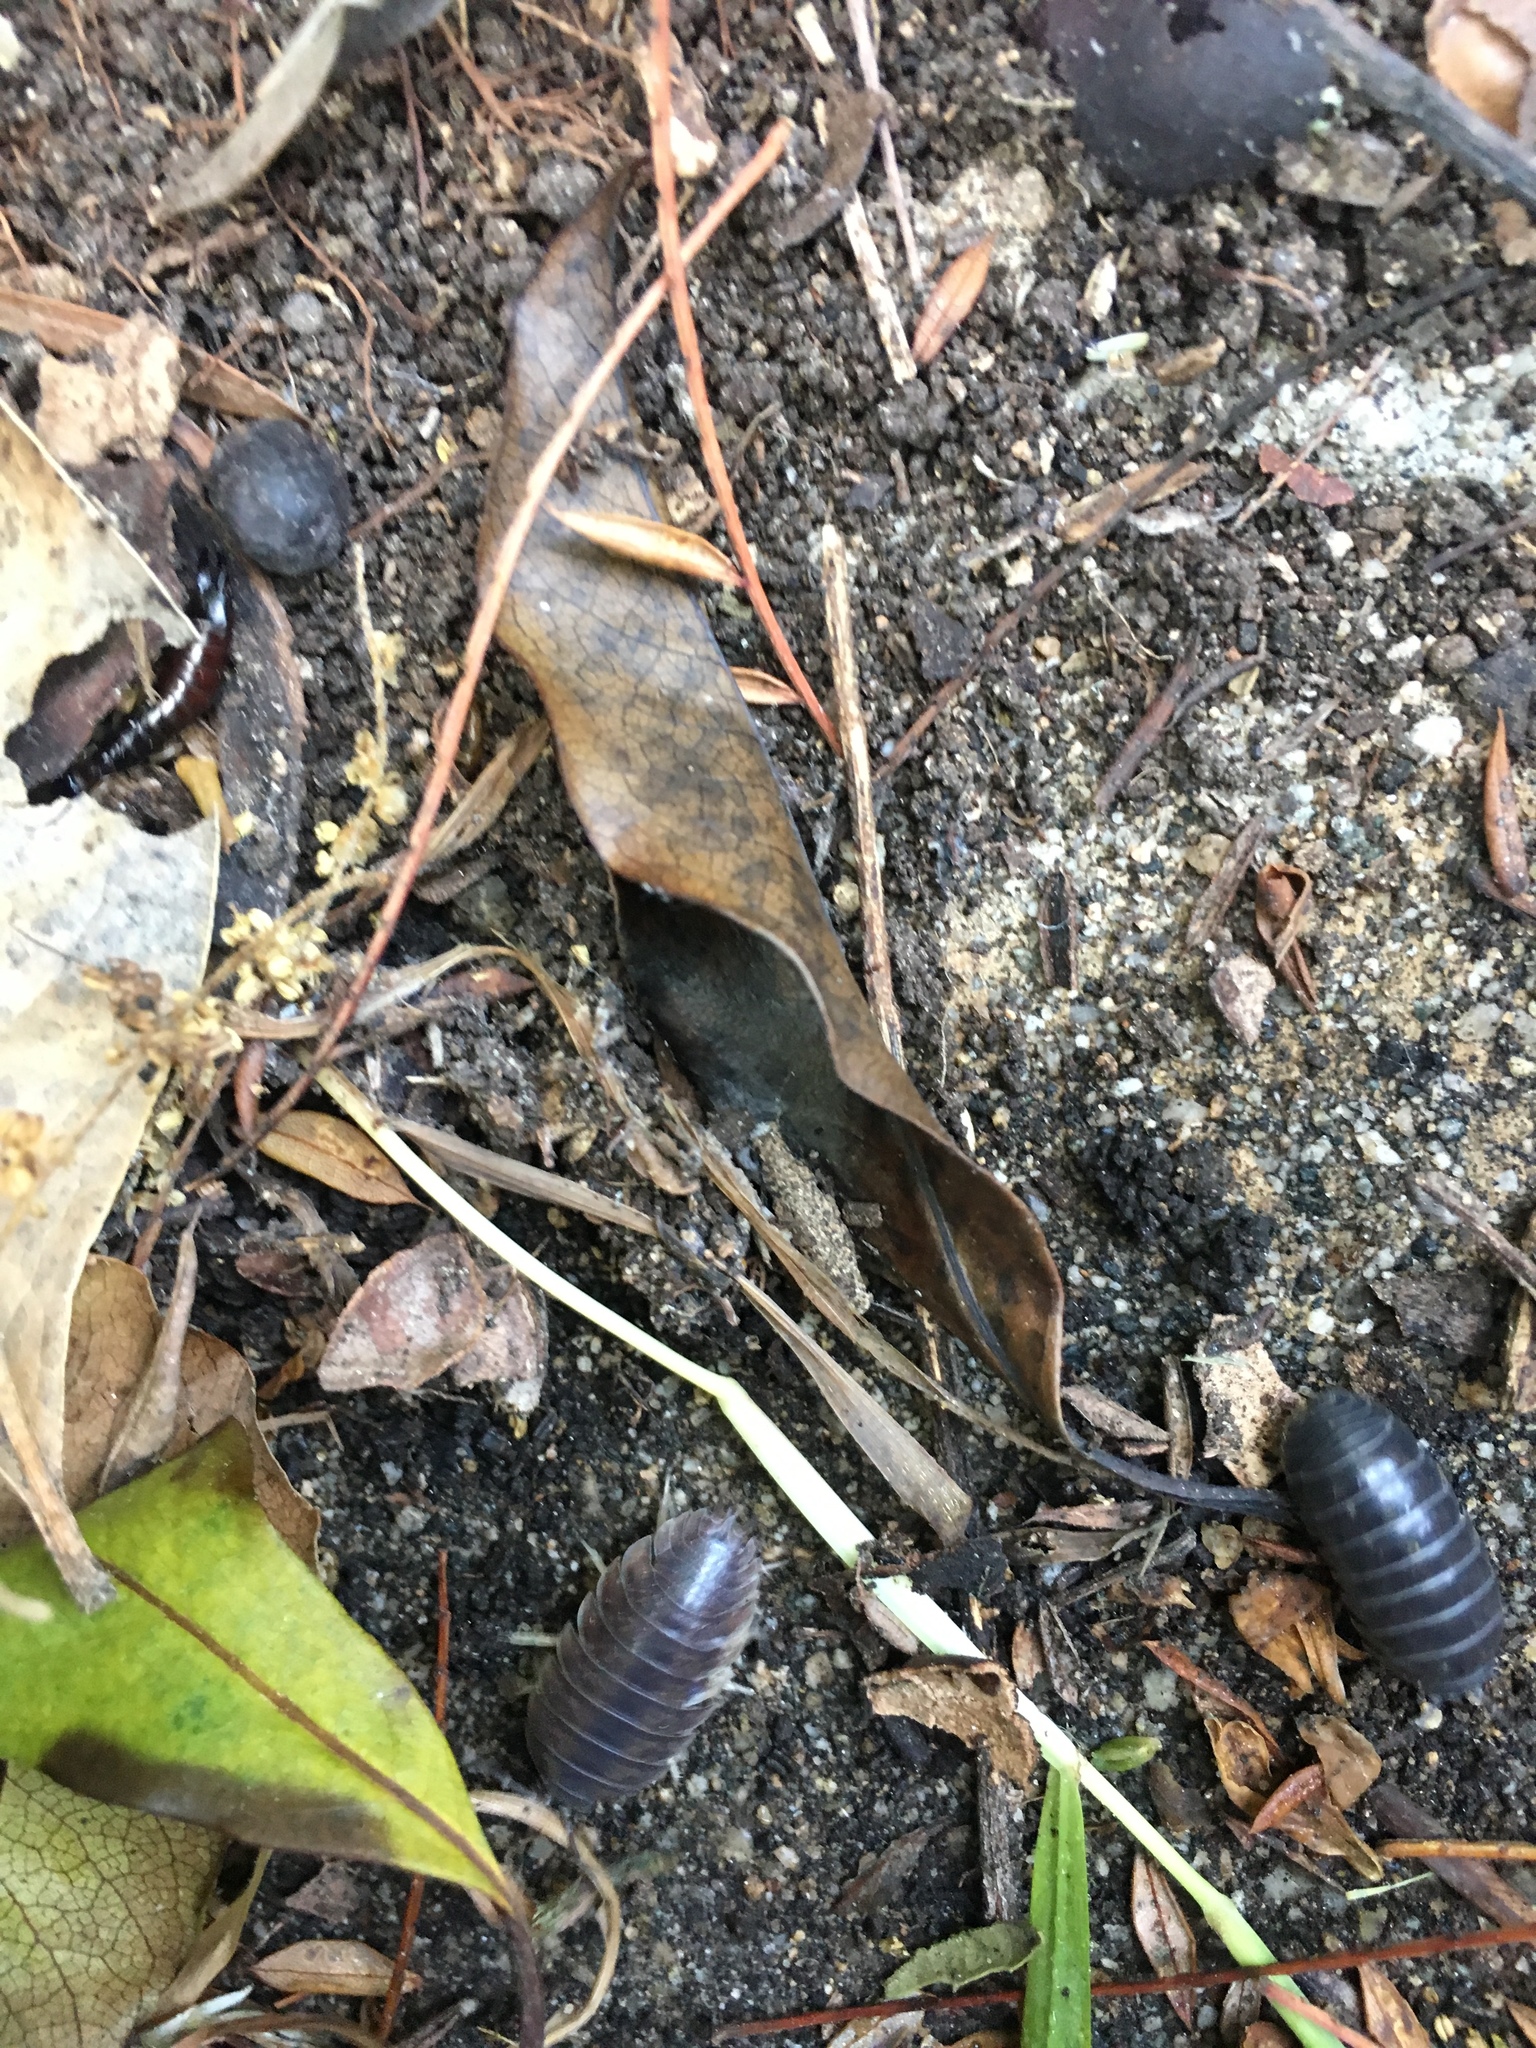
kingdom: Animalia
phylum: Arthropoda
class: Malacostraca
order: Isopoda
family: Porcellionidae
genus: Porcellio
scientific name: Porcellio laevis
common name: Swift woodlouse
